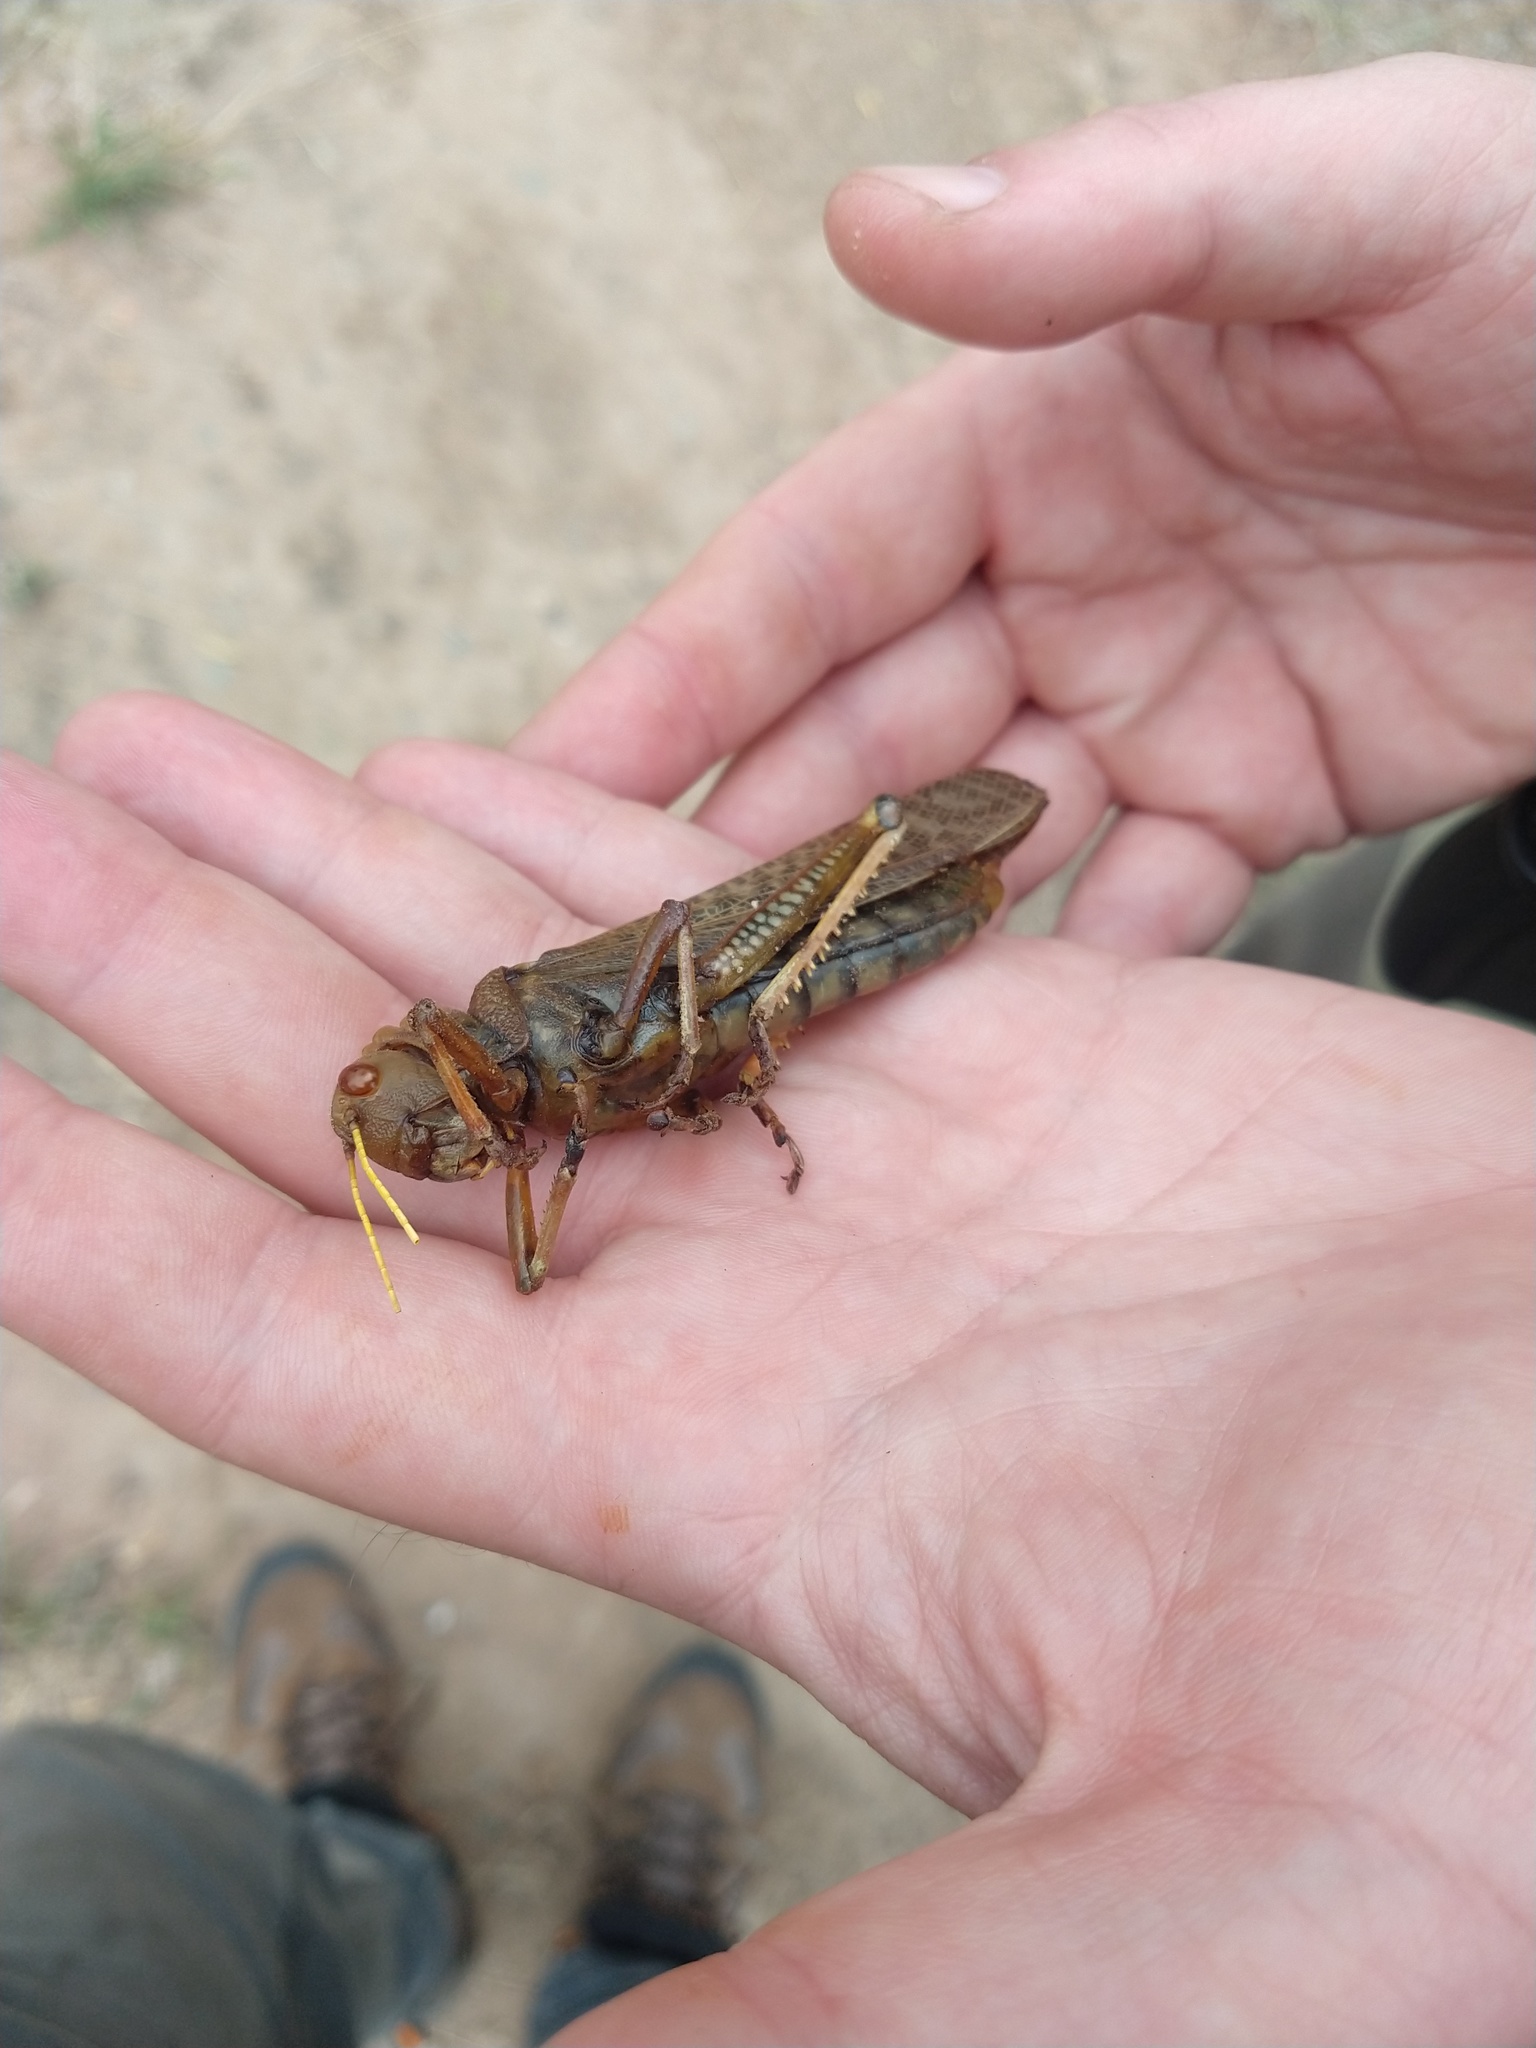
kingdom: Animalia
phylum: Arthropoda
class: Insecta
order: Orthoptera
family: Romaleidae
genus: Tropidacris
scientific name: Tropidacris collaris
